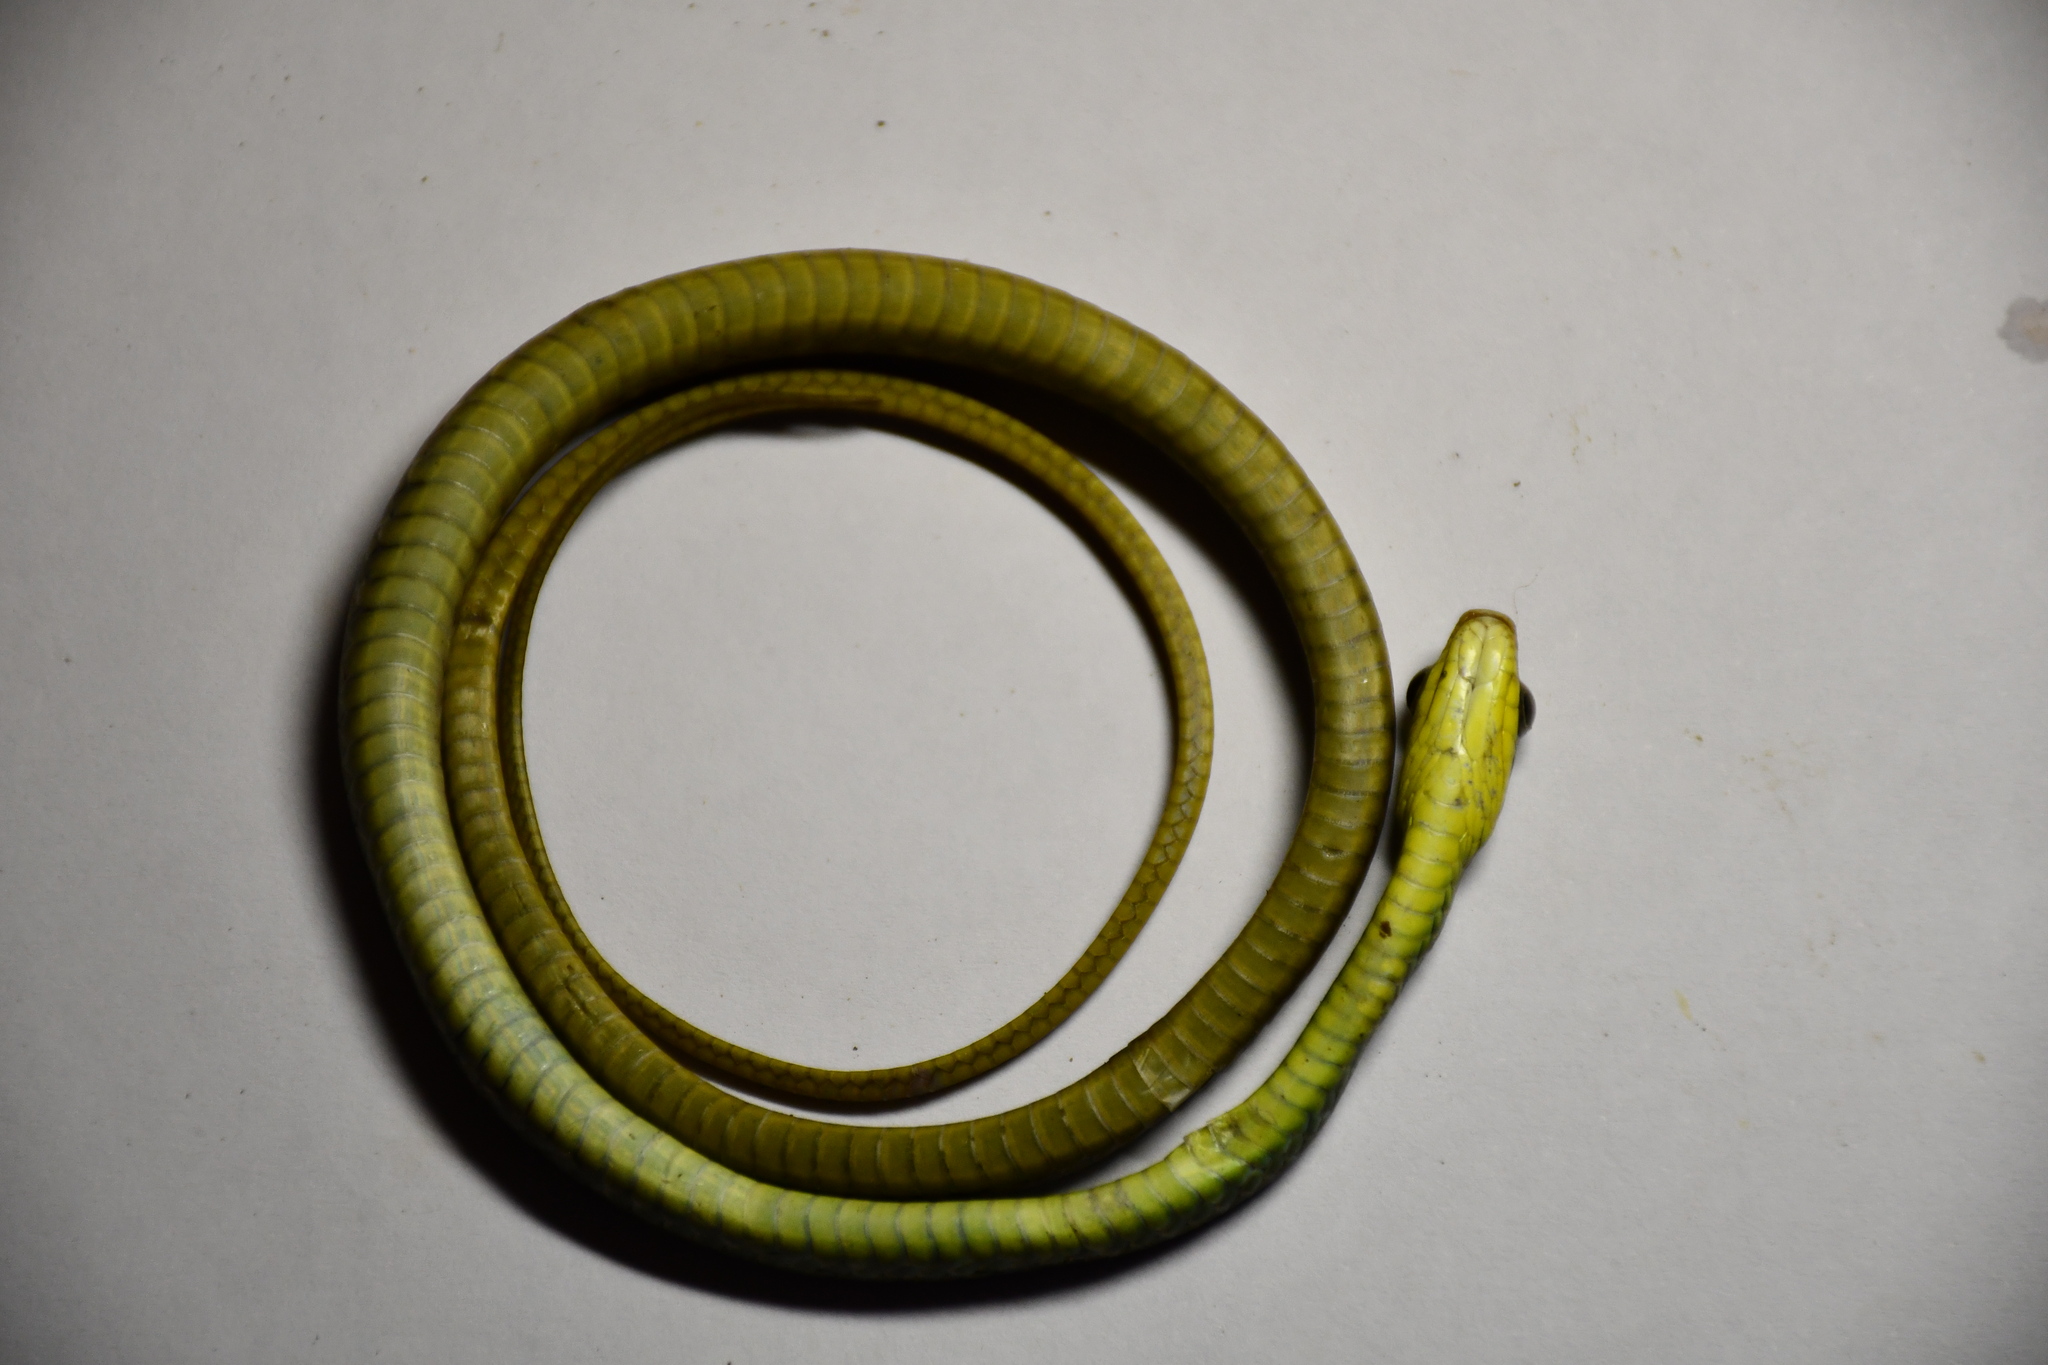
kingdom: Animalia
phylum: Chordata
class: Squamata
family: Colubridae
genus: Chironius
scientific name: Chironius exoletus
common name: Linnaeus' sipo
